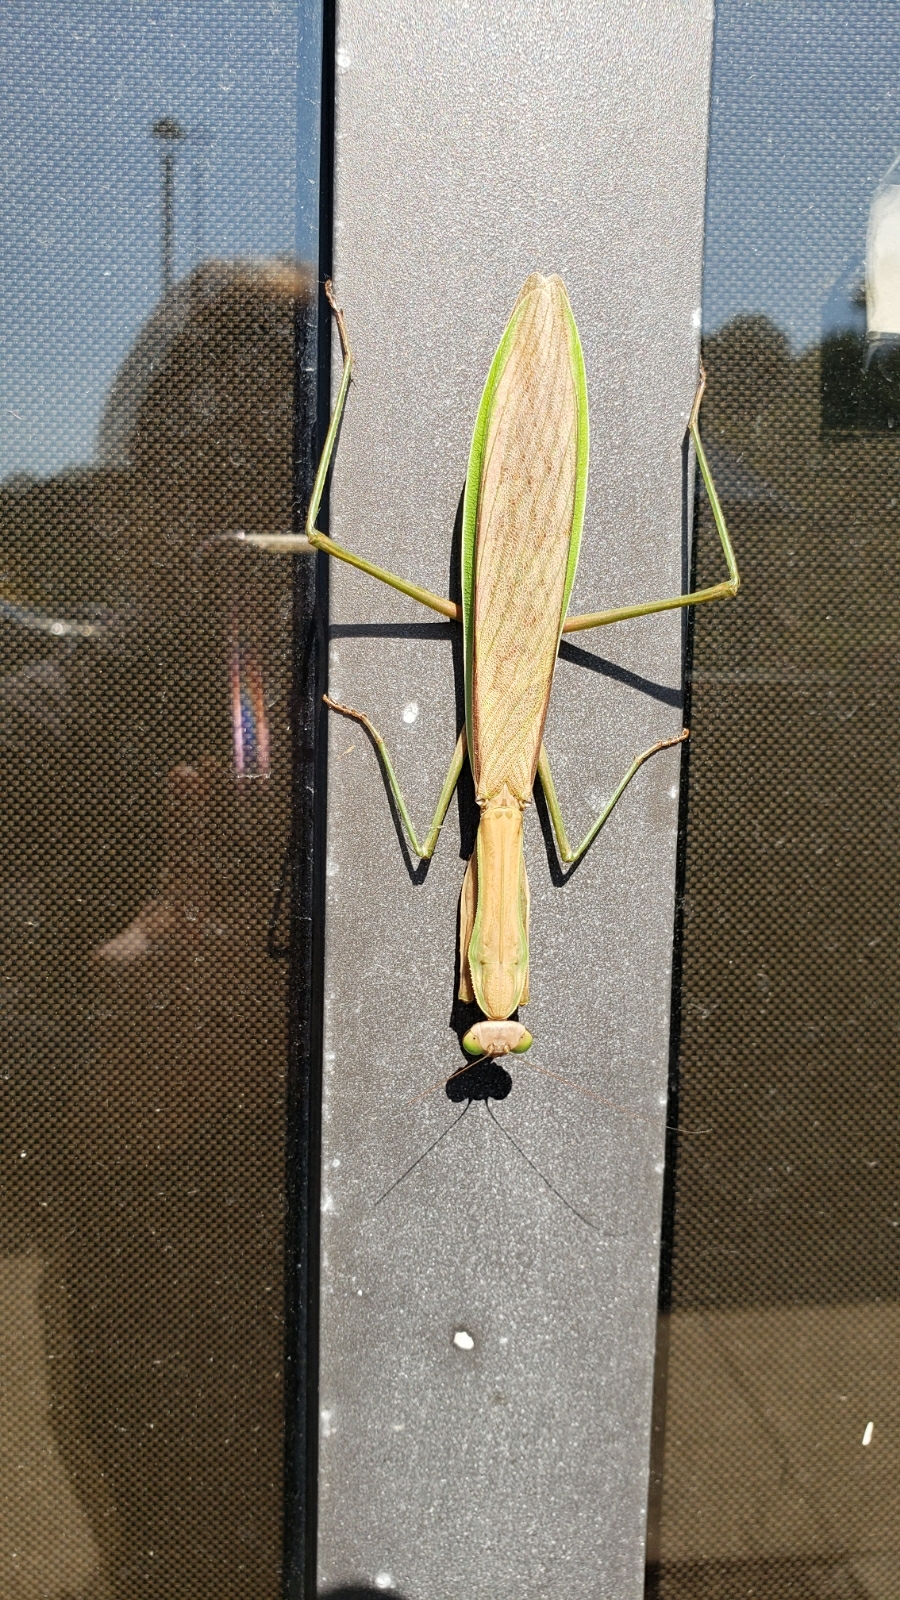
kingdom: Animalia
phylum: Arthropoda
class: Insecta
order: Mantodea
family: Mantidae
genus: Tenodera
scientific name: Tenodera sinensis
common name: Chinese mantis
